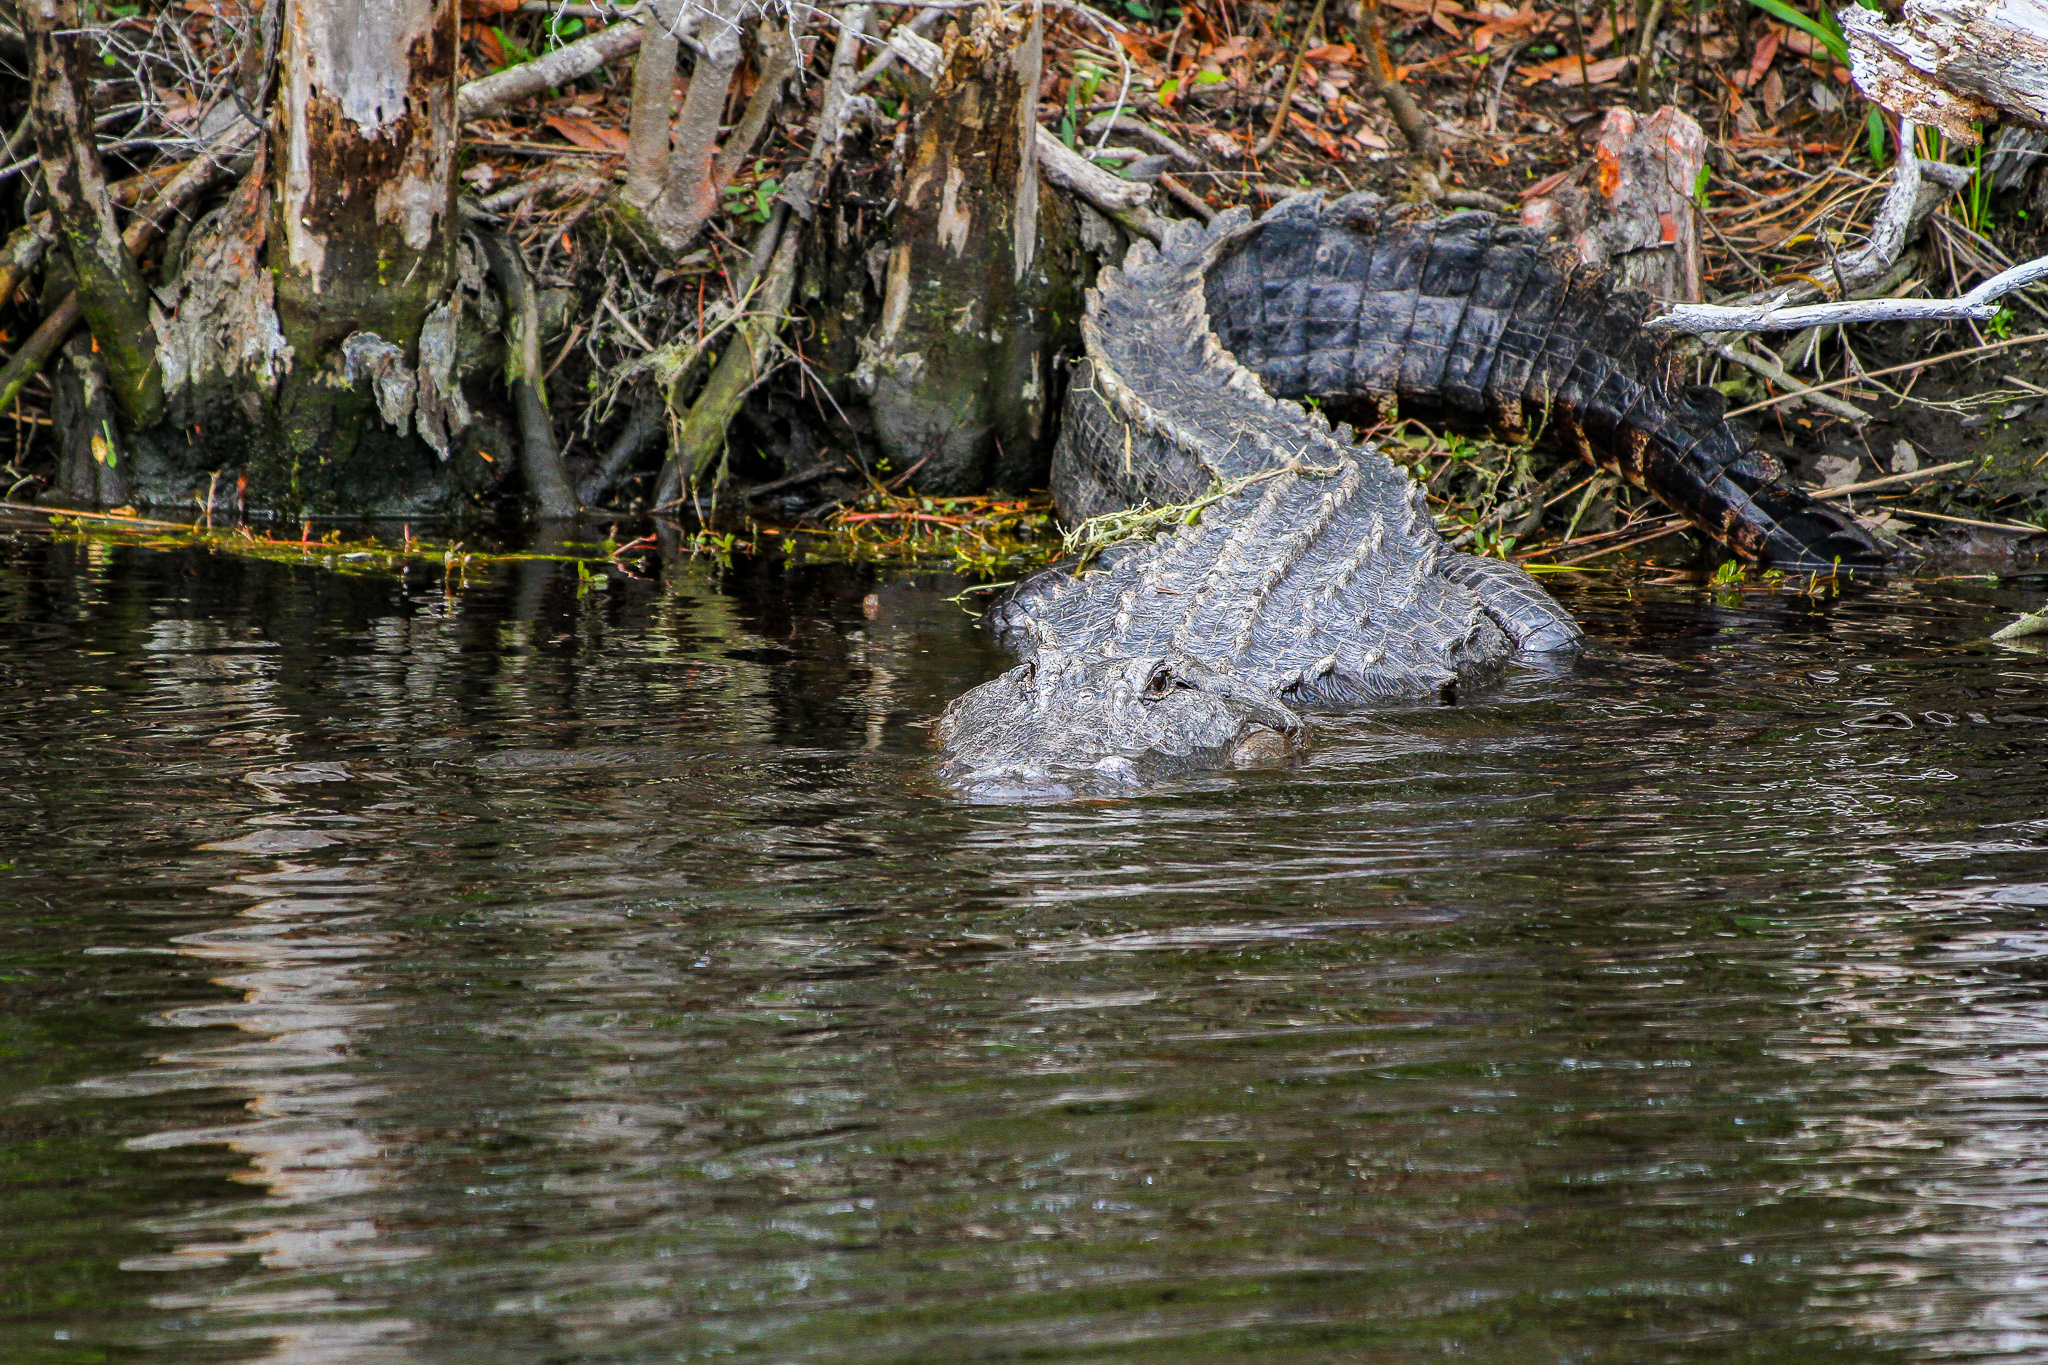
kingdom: Animalia
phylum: Chordata
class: Crocodylia
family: Alligatoridae
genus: Alligator
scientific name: Alligator mississippiensis
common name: American alligator
